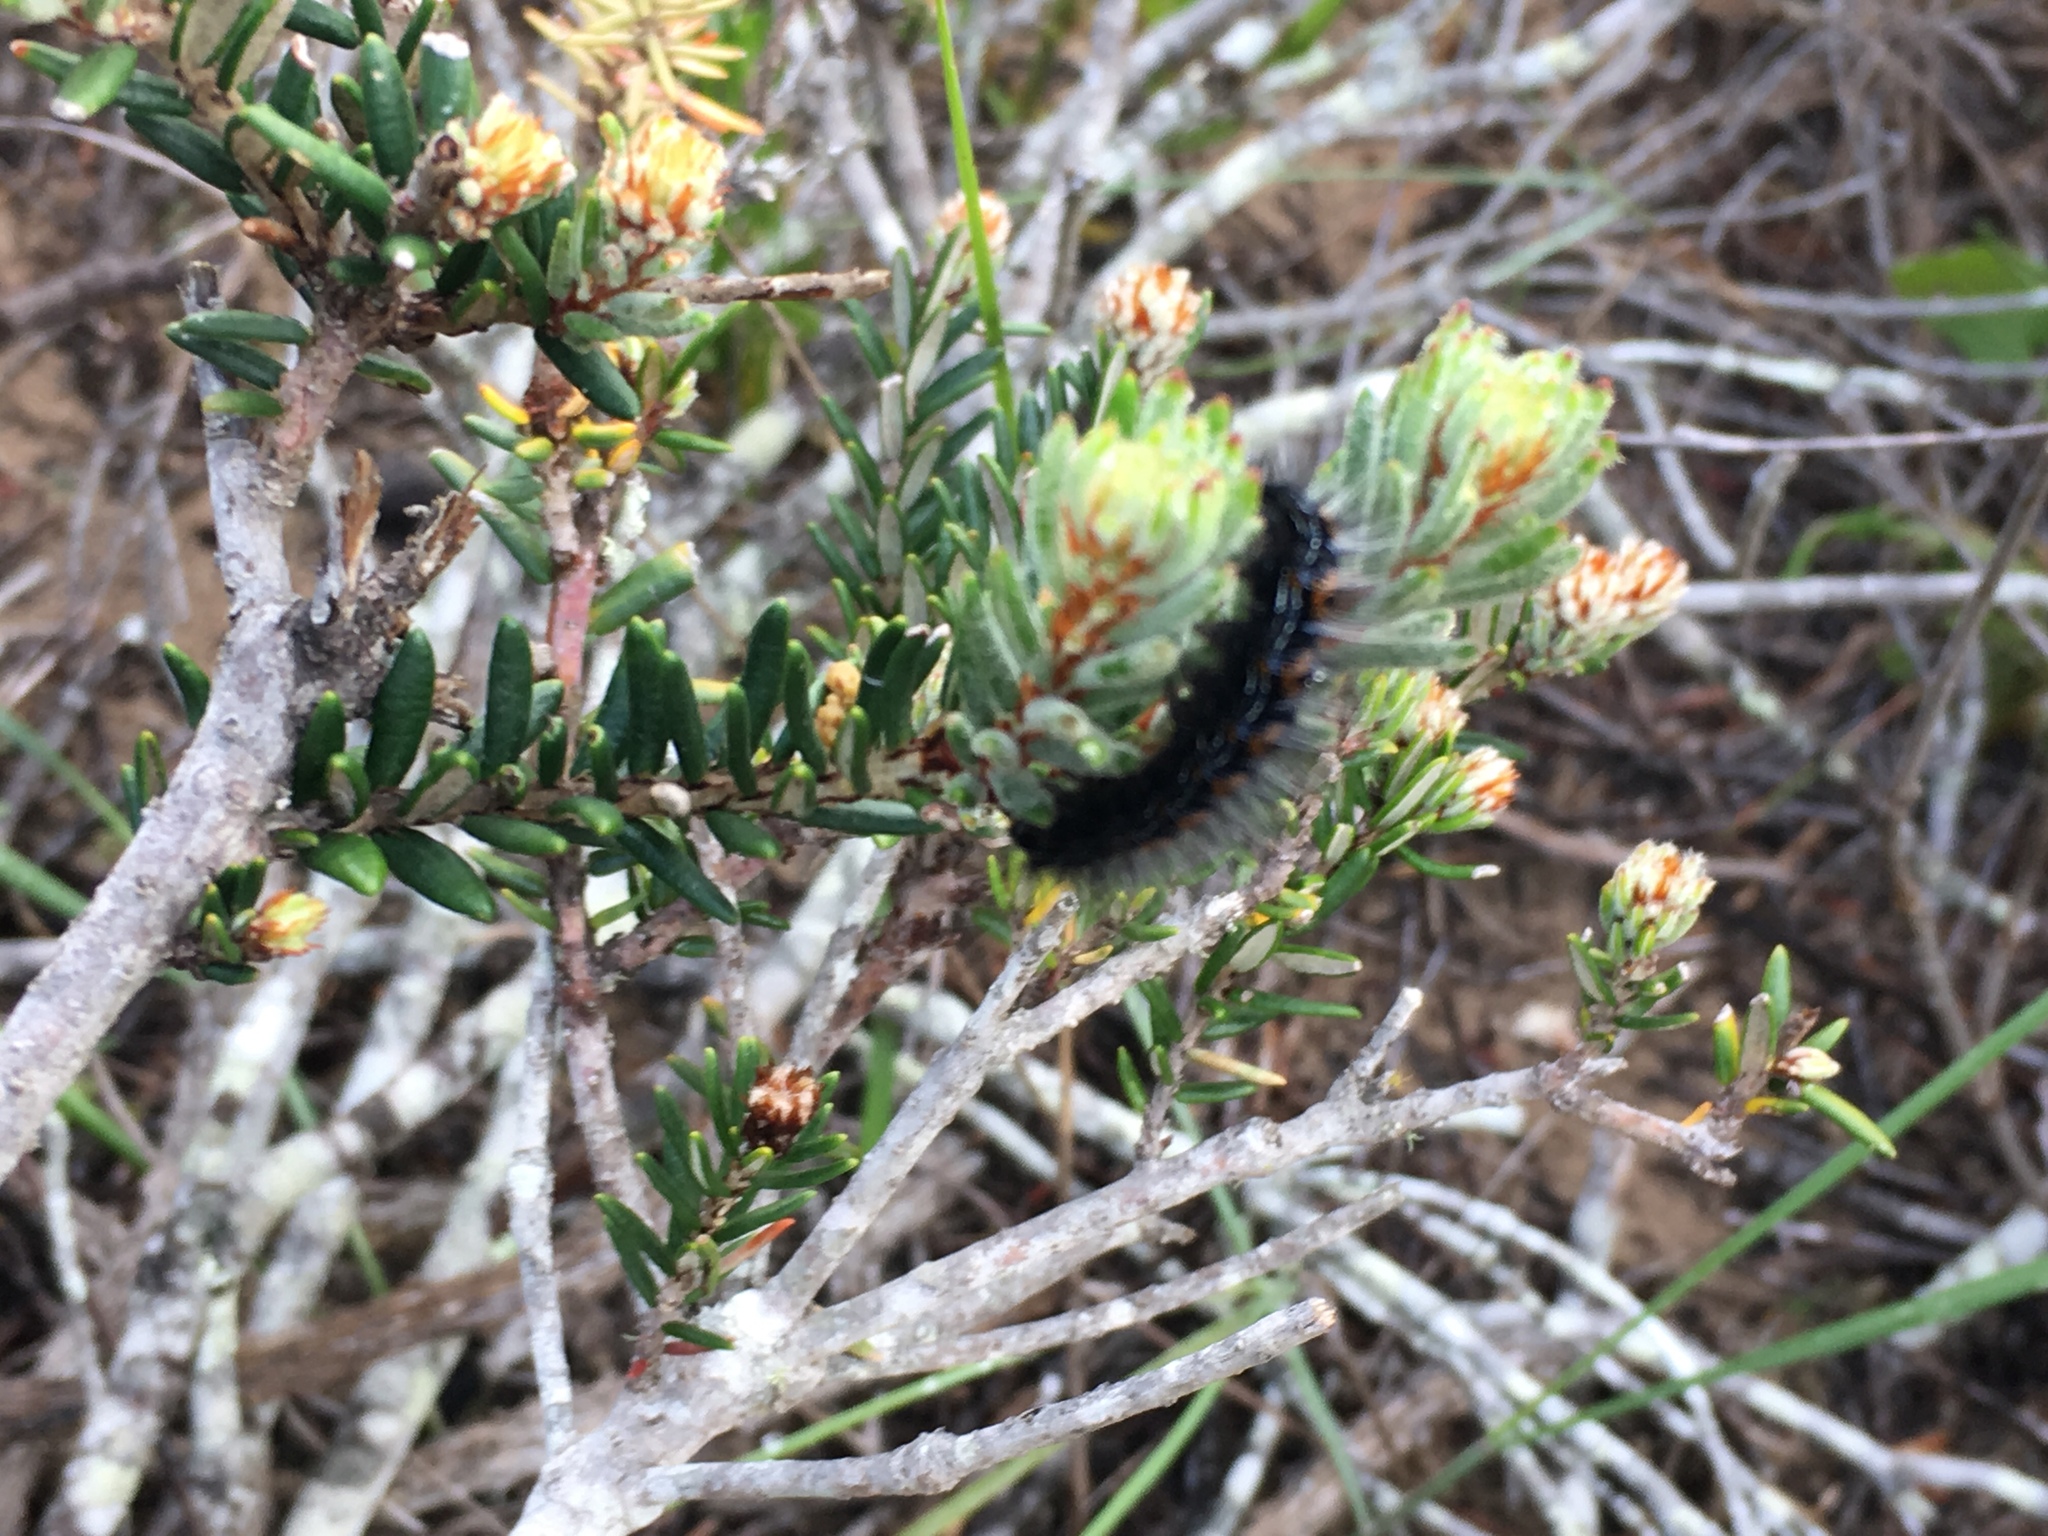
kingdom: Plantae
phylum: Tracheophyta
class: Magnoliopsida
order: Rosales
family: Rhamnaceae
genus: Trichocephalus
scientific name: Trichocephalus stipularis
